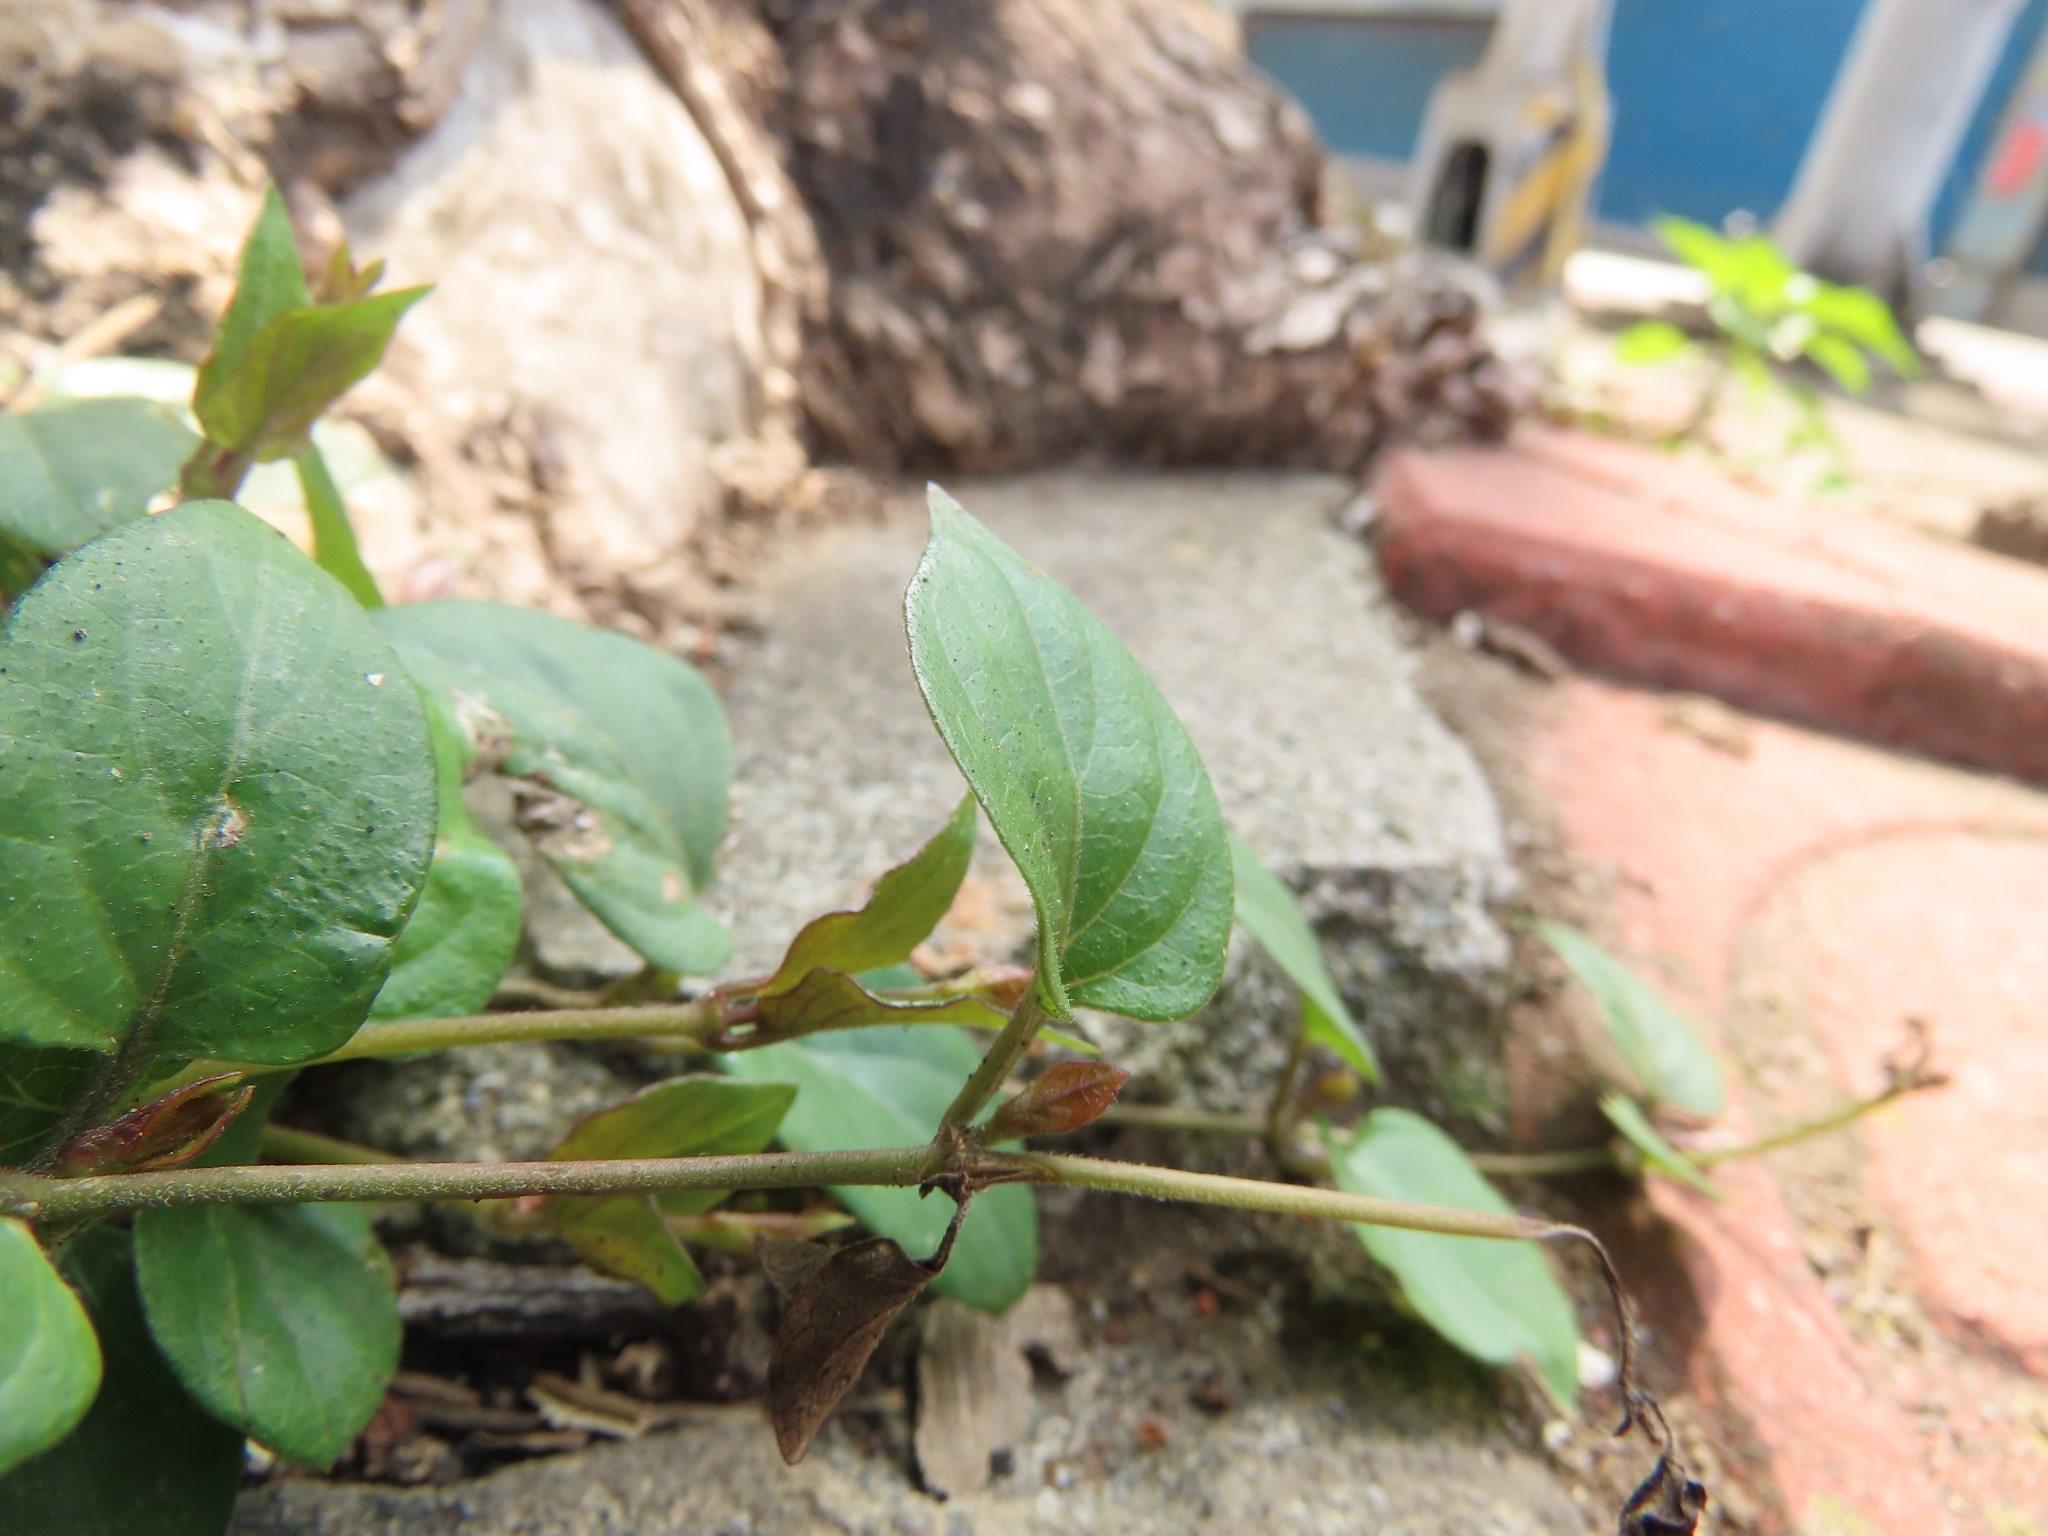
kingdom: Plantae
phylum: Tracheophyta
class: Magnoliopsida
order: Gentianales
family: Rubiaceae
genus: Paederia
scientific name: Paederia cavaleriei
